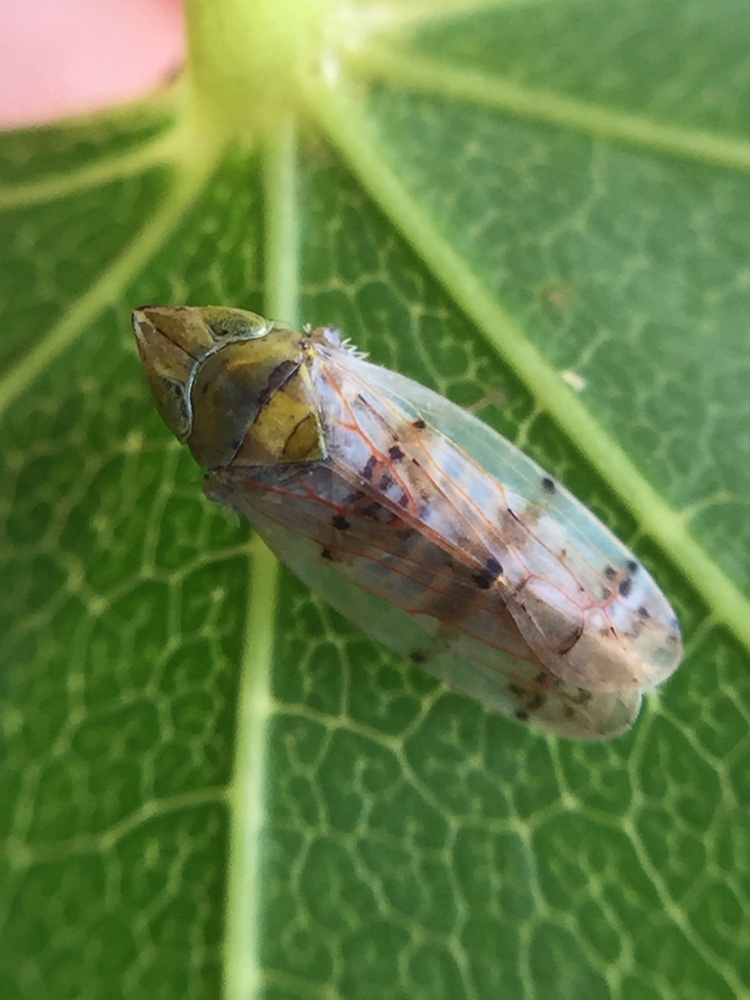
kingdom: Animalia
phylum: Arthropoda
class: Insecta
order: Hemiptera
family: Cicadellidae
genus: Japananus
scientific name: Japananus hyalinus
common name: The japanese maple leafhopper
